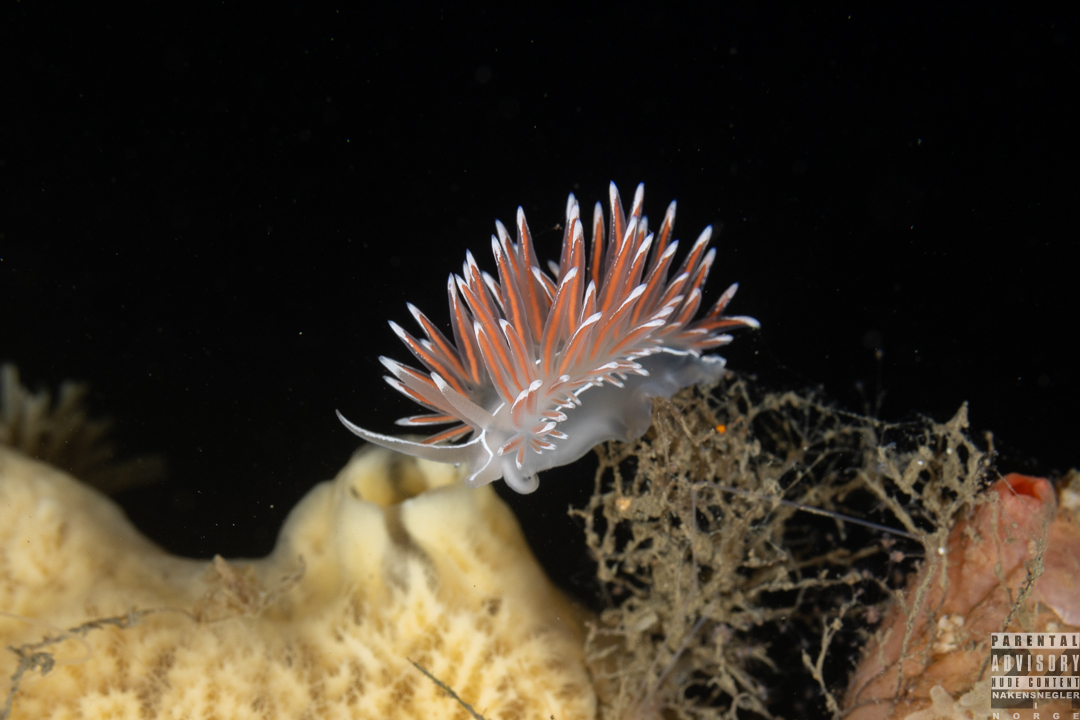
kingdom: Animalia
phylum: Mollusca
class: Gastropoda
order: Nudibranchia
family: Coryphellidae
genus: Coryphella
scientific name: Coryphella lineata
